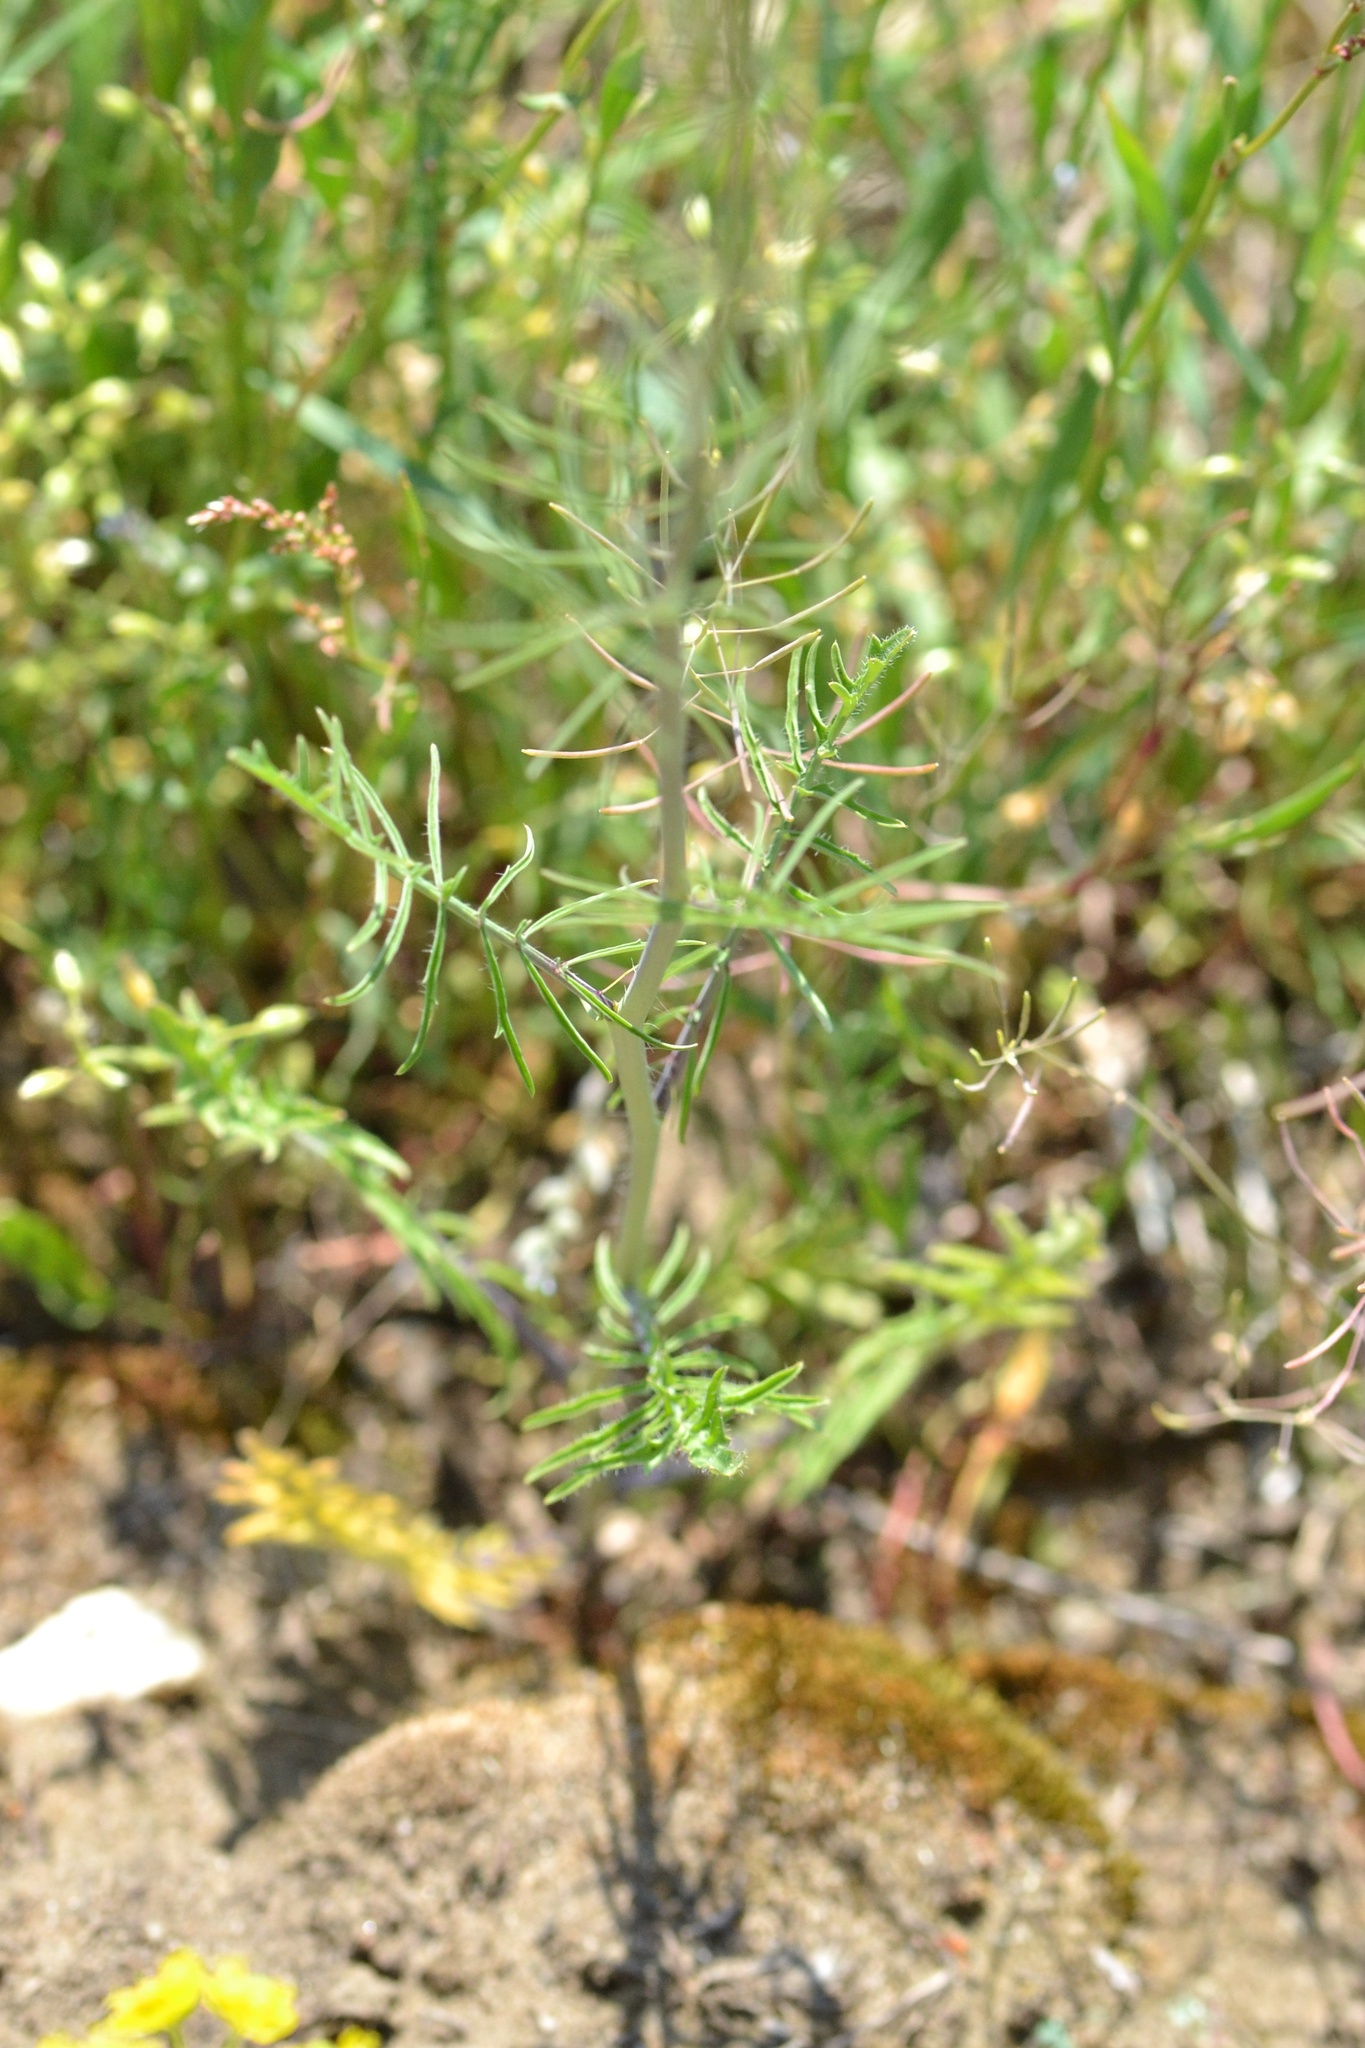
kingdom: Plantae
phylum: Tracheophyta
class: Magnoliopsida
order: Brassicales
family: Brassicaceae
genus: Sisymbrium
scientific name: Sisymbrium altissimum
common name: Tall rocket
